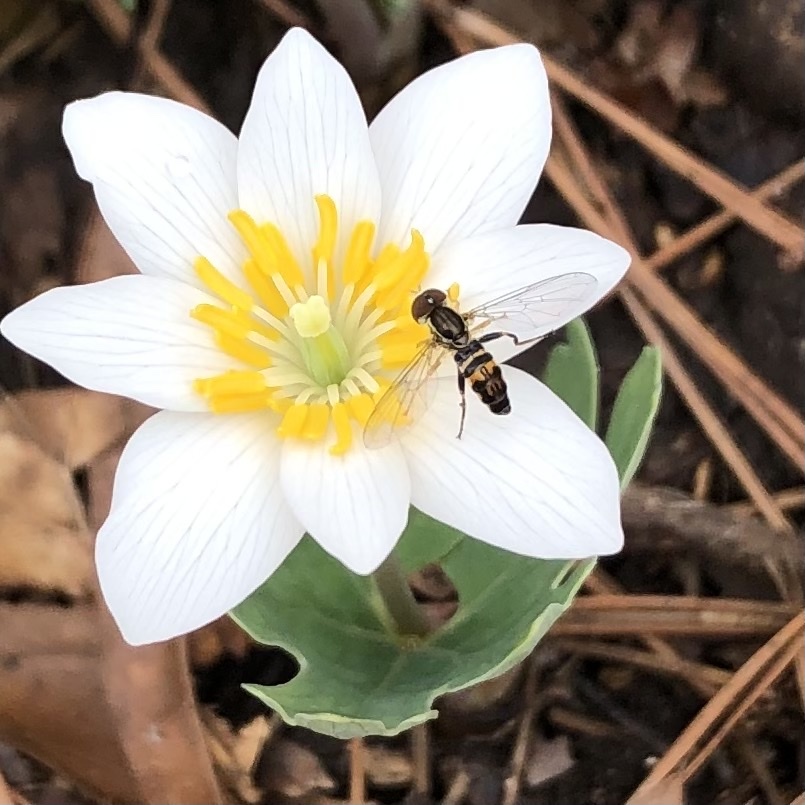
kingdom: Animalia
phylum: Arthropoda
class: Insecta
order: Diptera
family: Syrphidae
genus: Toxomerus
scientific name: Toxomerus geminatus
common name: Eastern calligrapher
